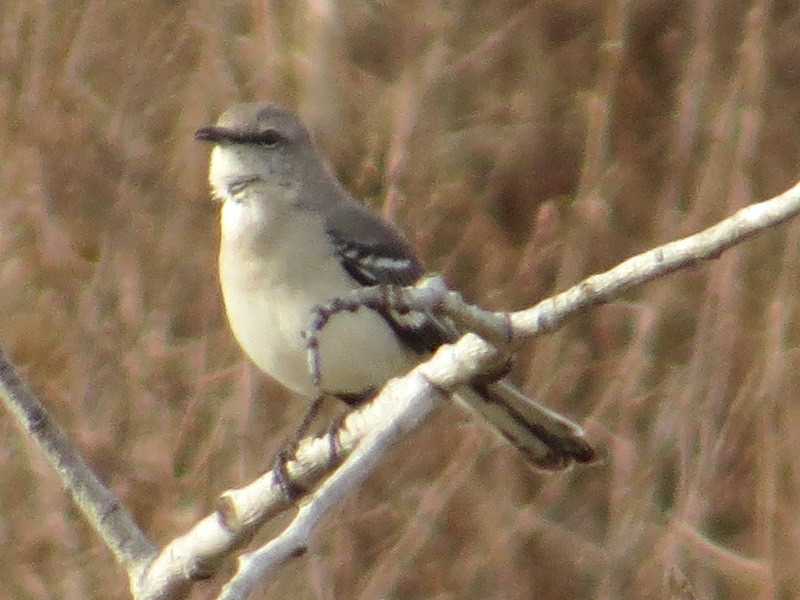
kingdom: Animalia
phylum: Chordata
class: Aves
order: Passeriformes
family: Mimidae
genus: Mimus
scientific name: Mimus polyglottos
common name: Northern mockingbird
